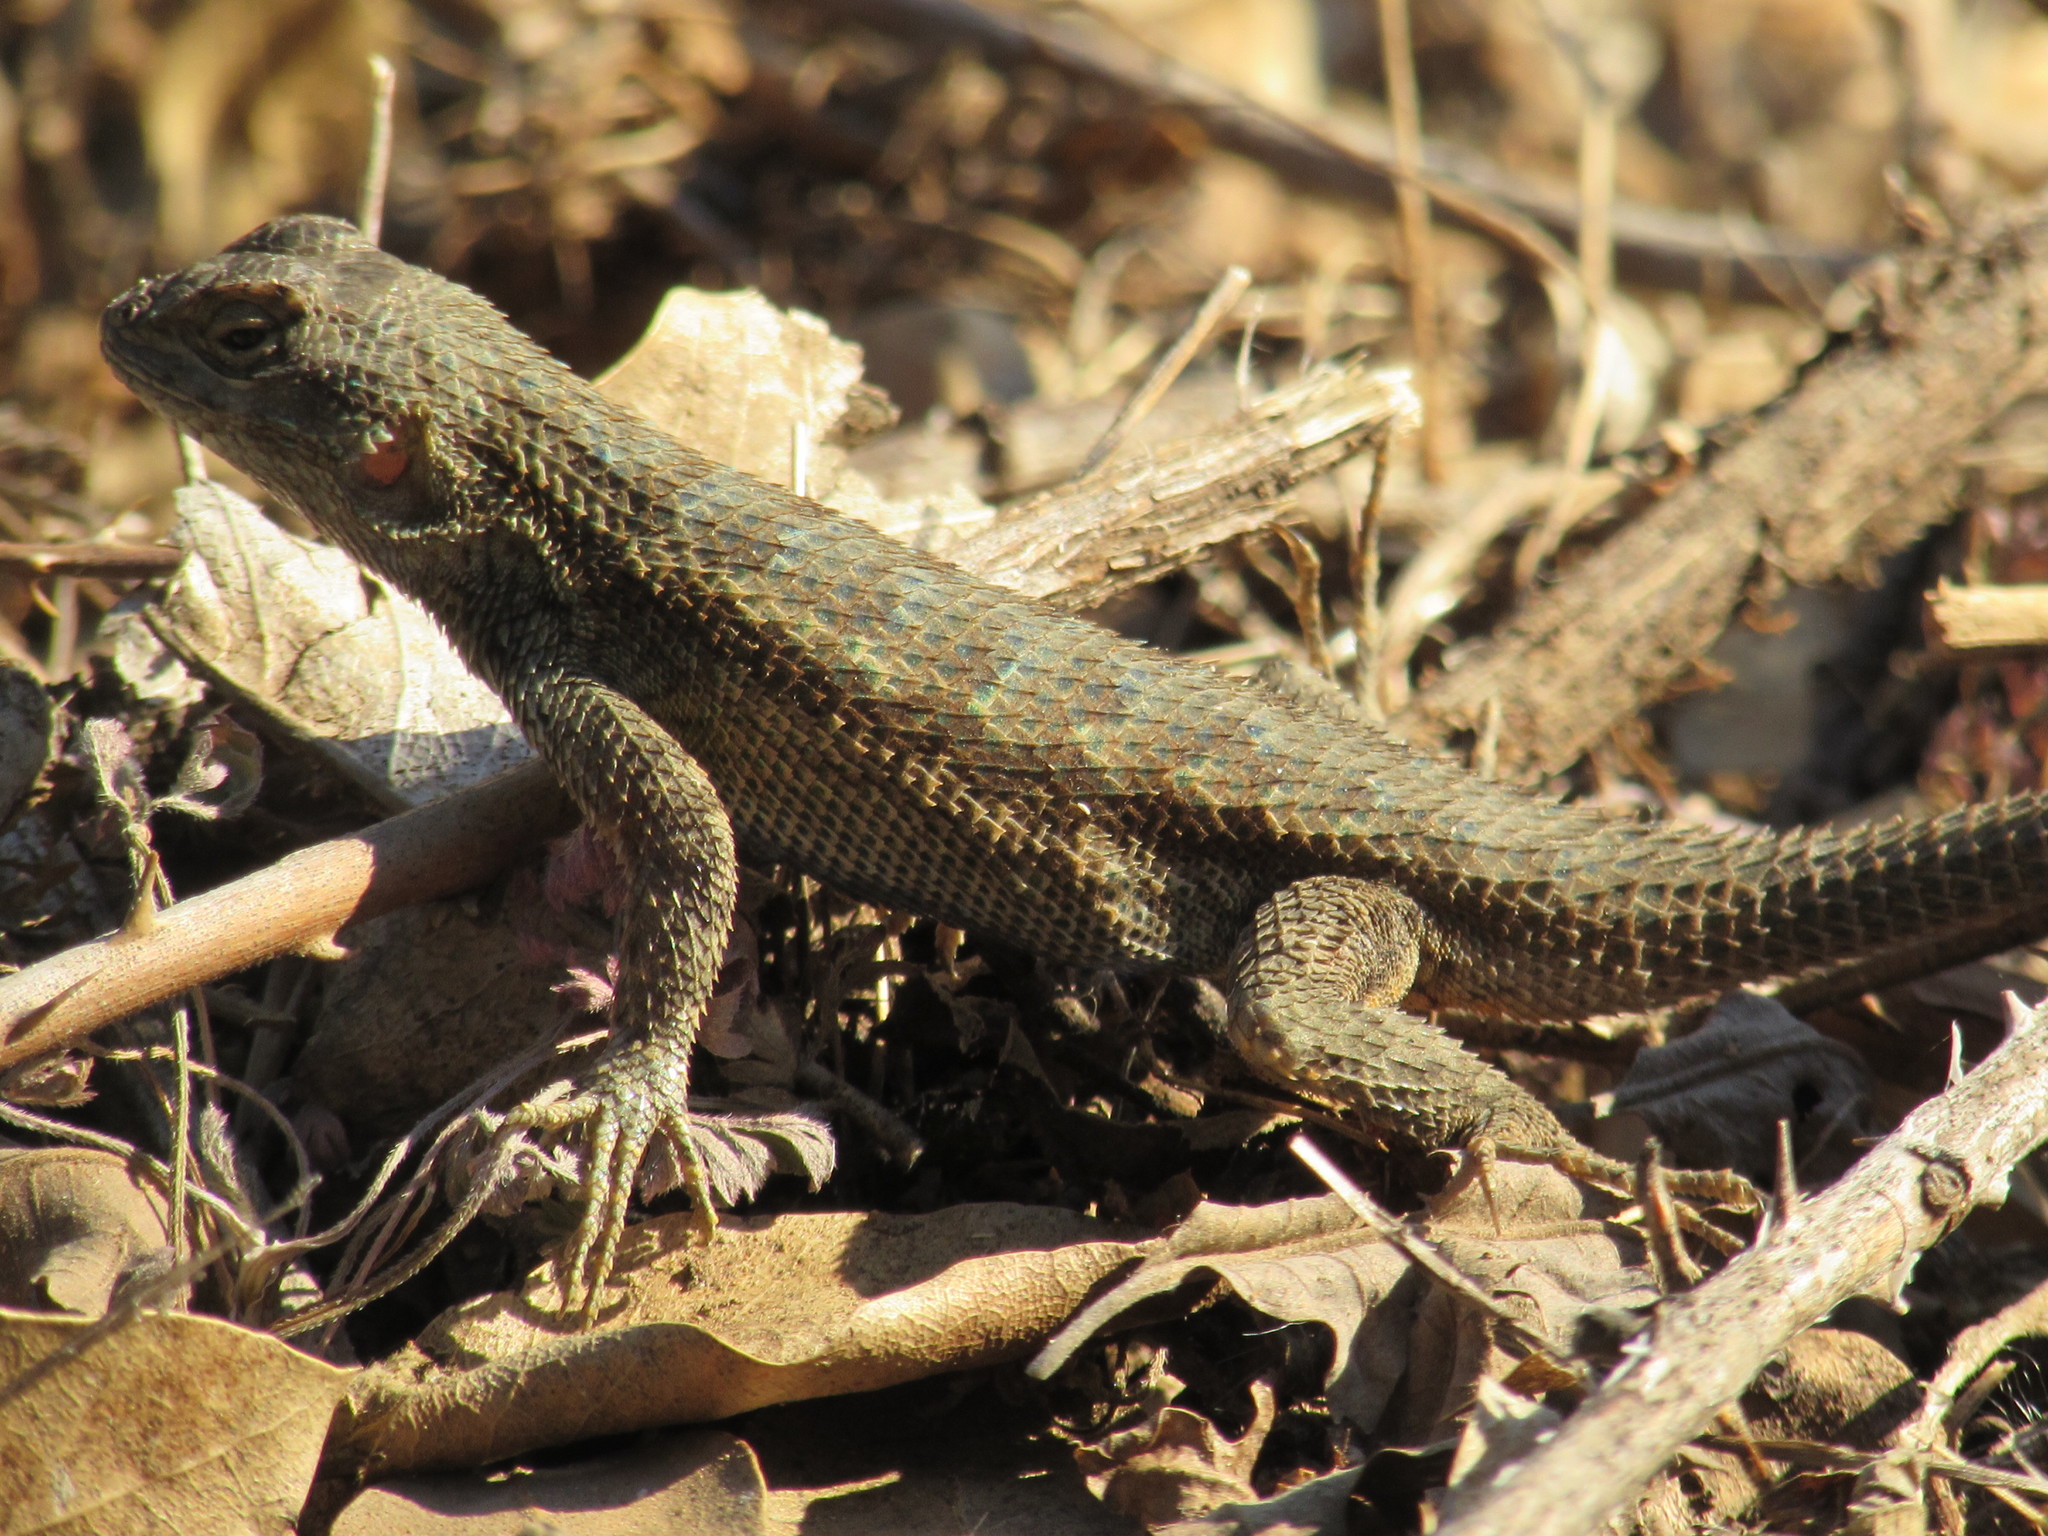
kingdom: Animalia
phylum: Chordata
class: Squamata
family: Phrynosomatidae
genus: Sceloporus
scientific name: Sceloporus occidentalis
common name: Western fence lizard
